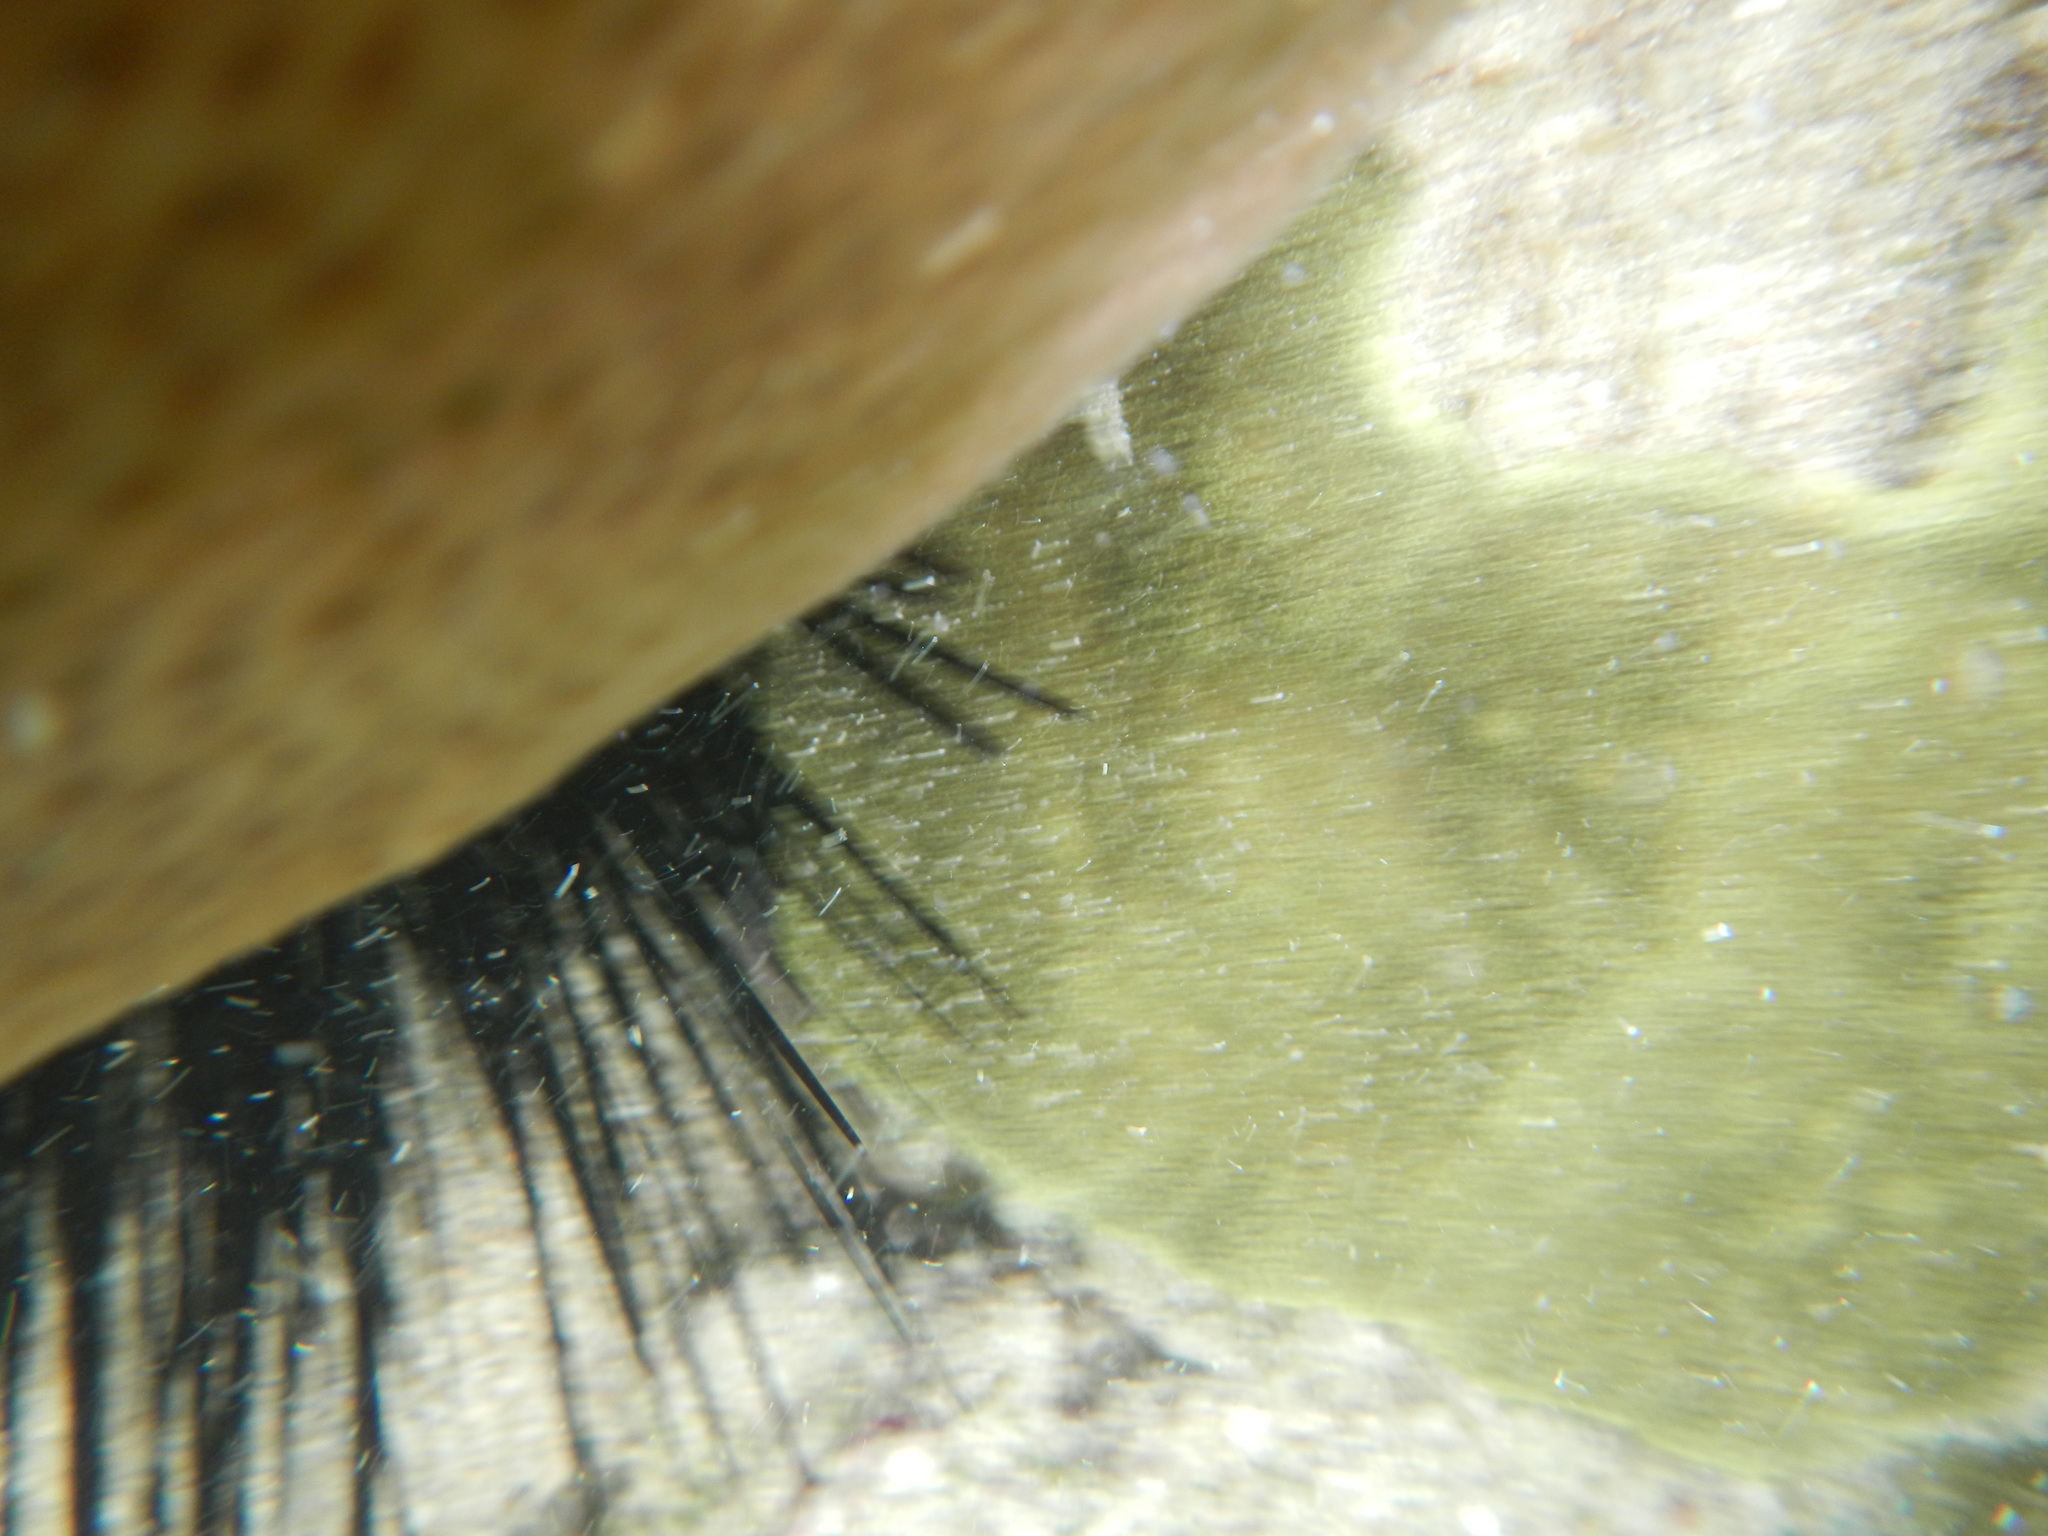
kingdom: Animalia
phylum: Echinodermata
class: Echinoidea
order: Diadematoida
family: Diadematidae
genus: Diadema
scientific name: Diadema antillarum
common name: Spiny urchin
